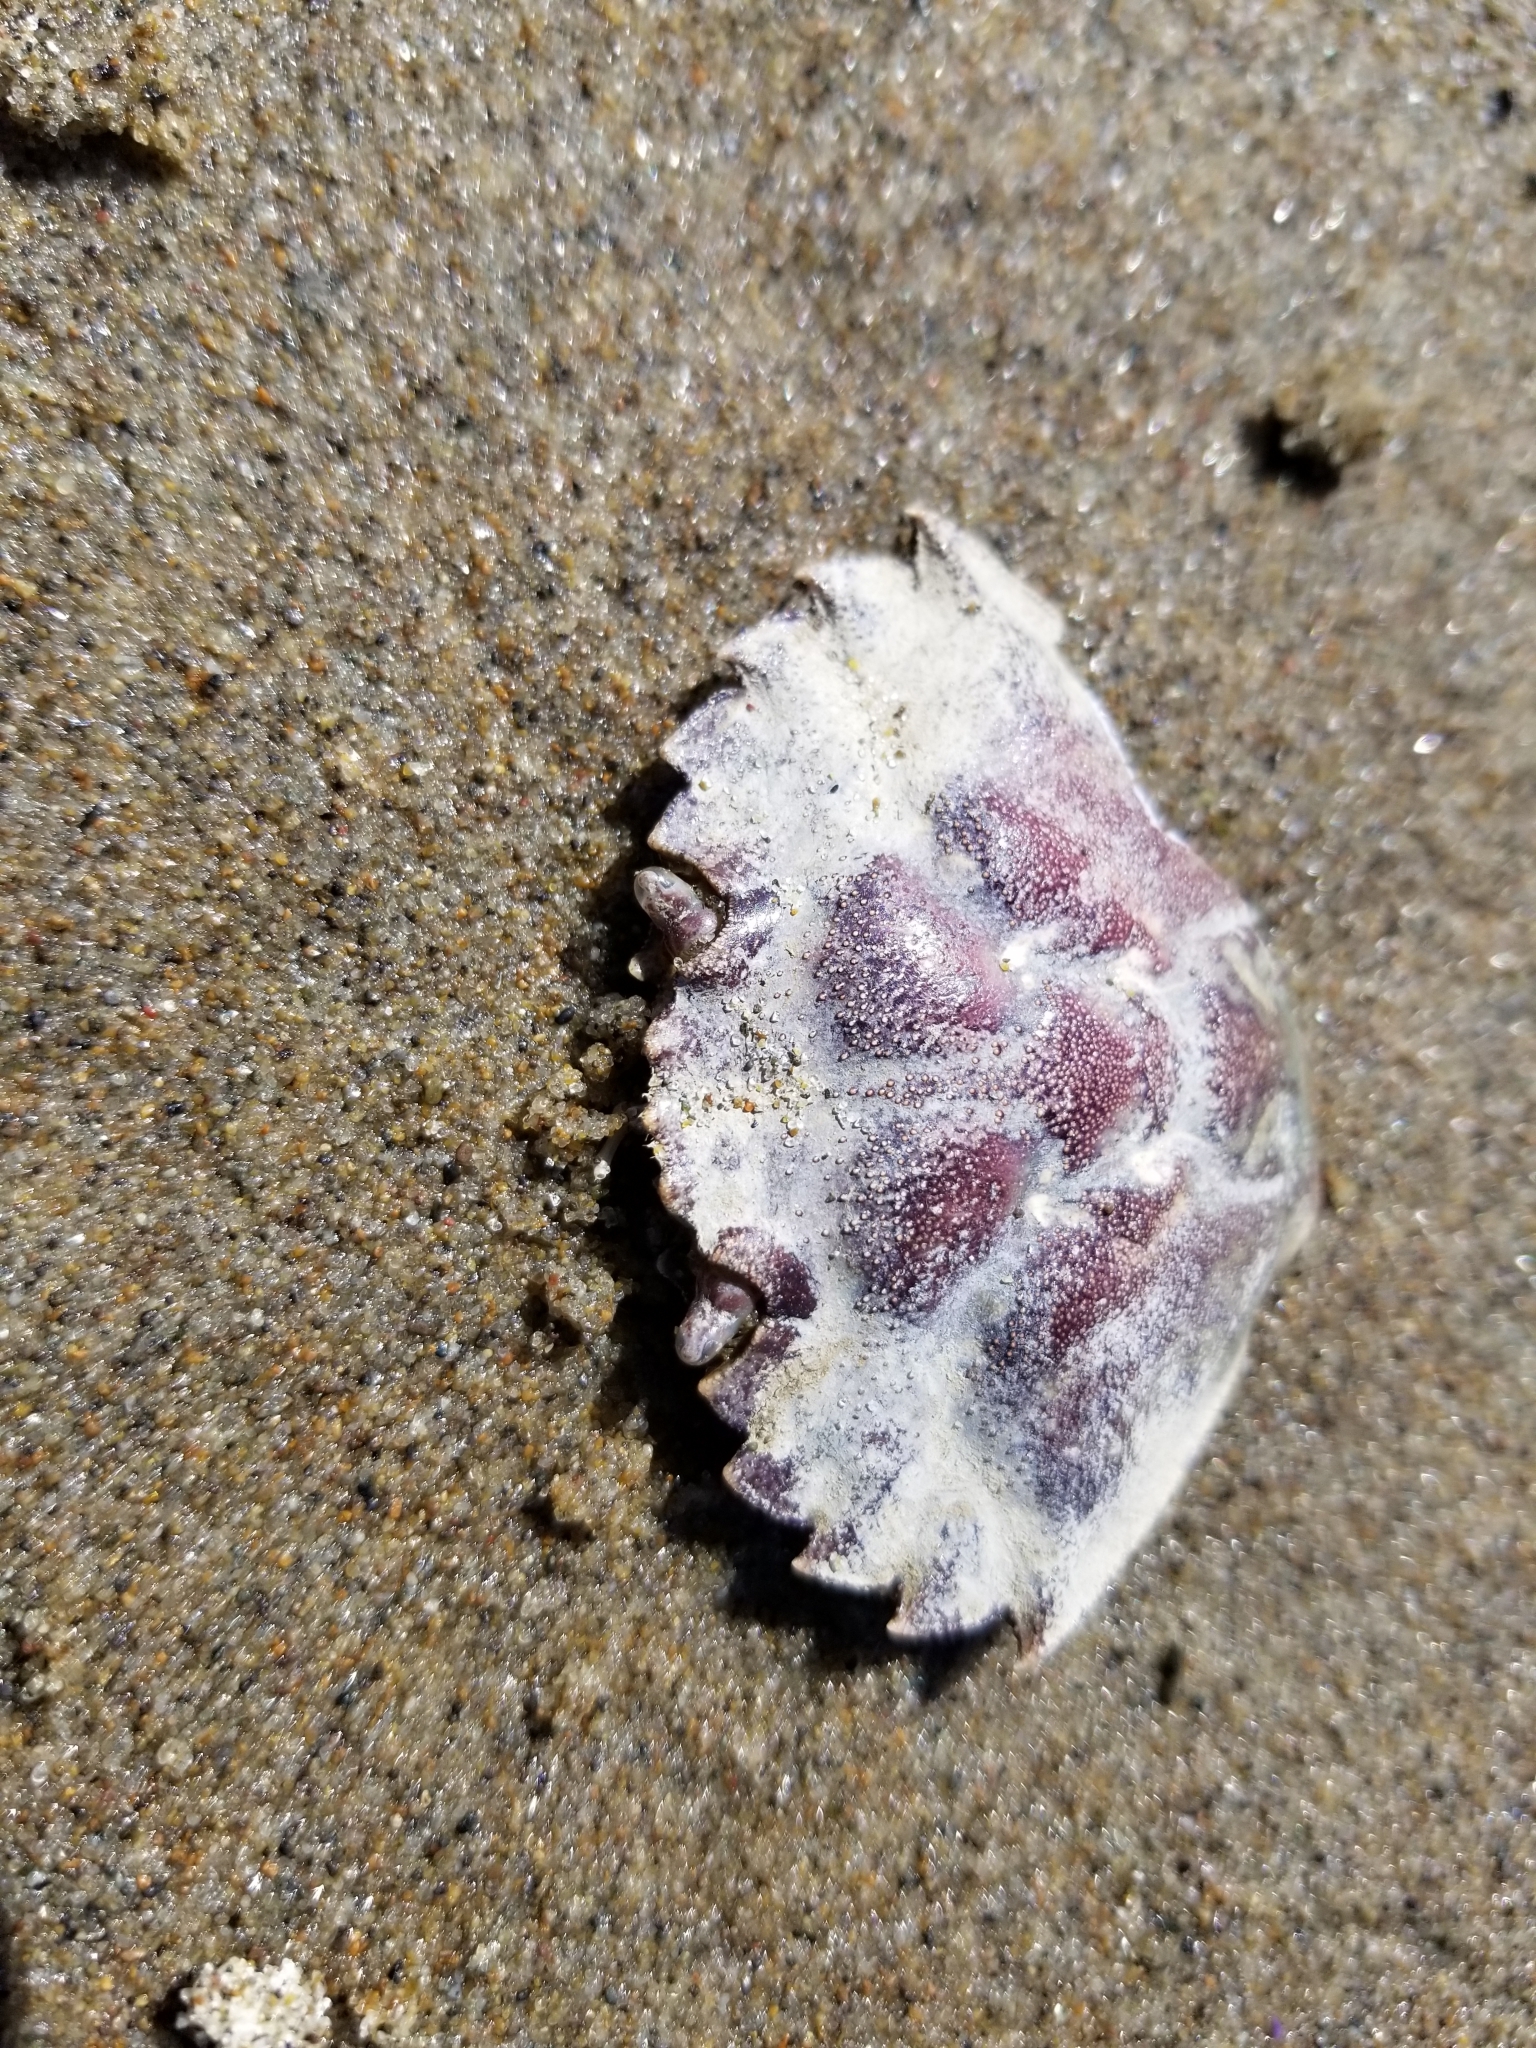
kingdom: Animalia
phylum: Arthropoda
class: Malacostraca
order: Decapoda
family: Carcinidae
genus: Carcinus
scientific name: Carcinus maenas
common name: European green crab
